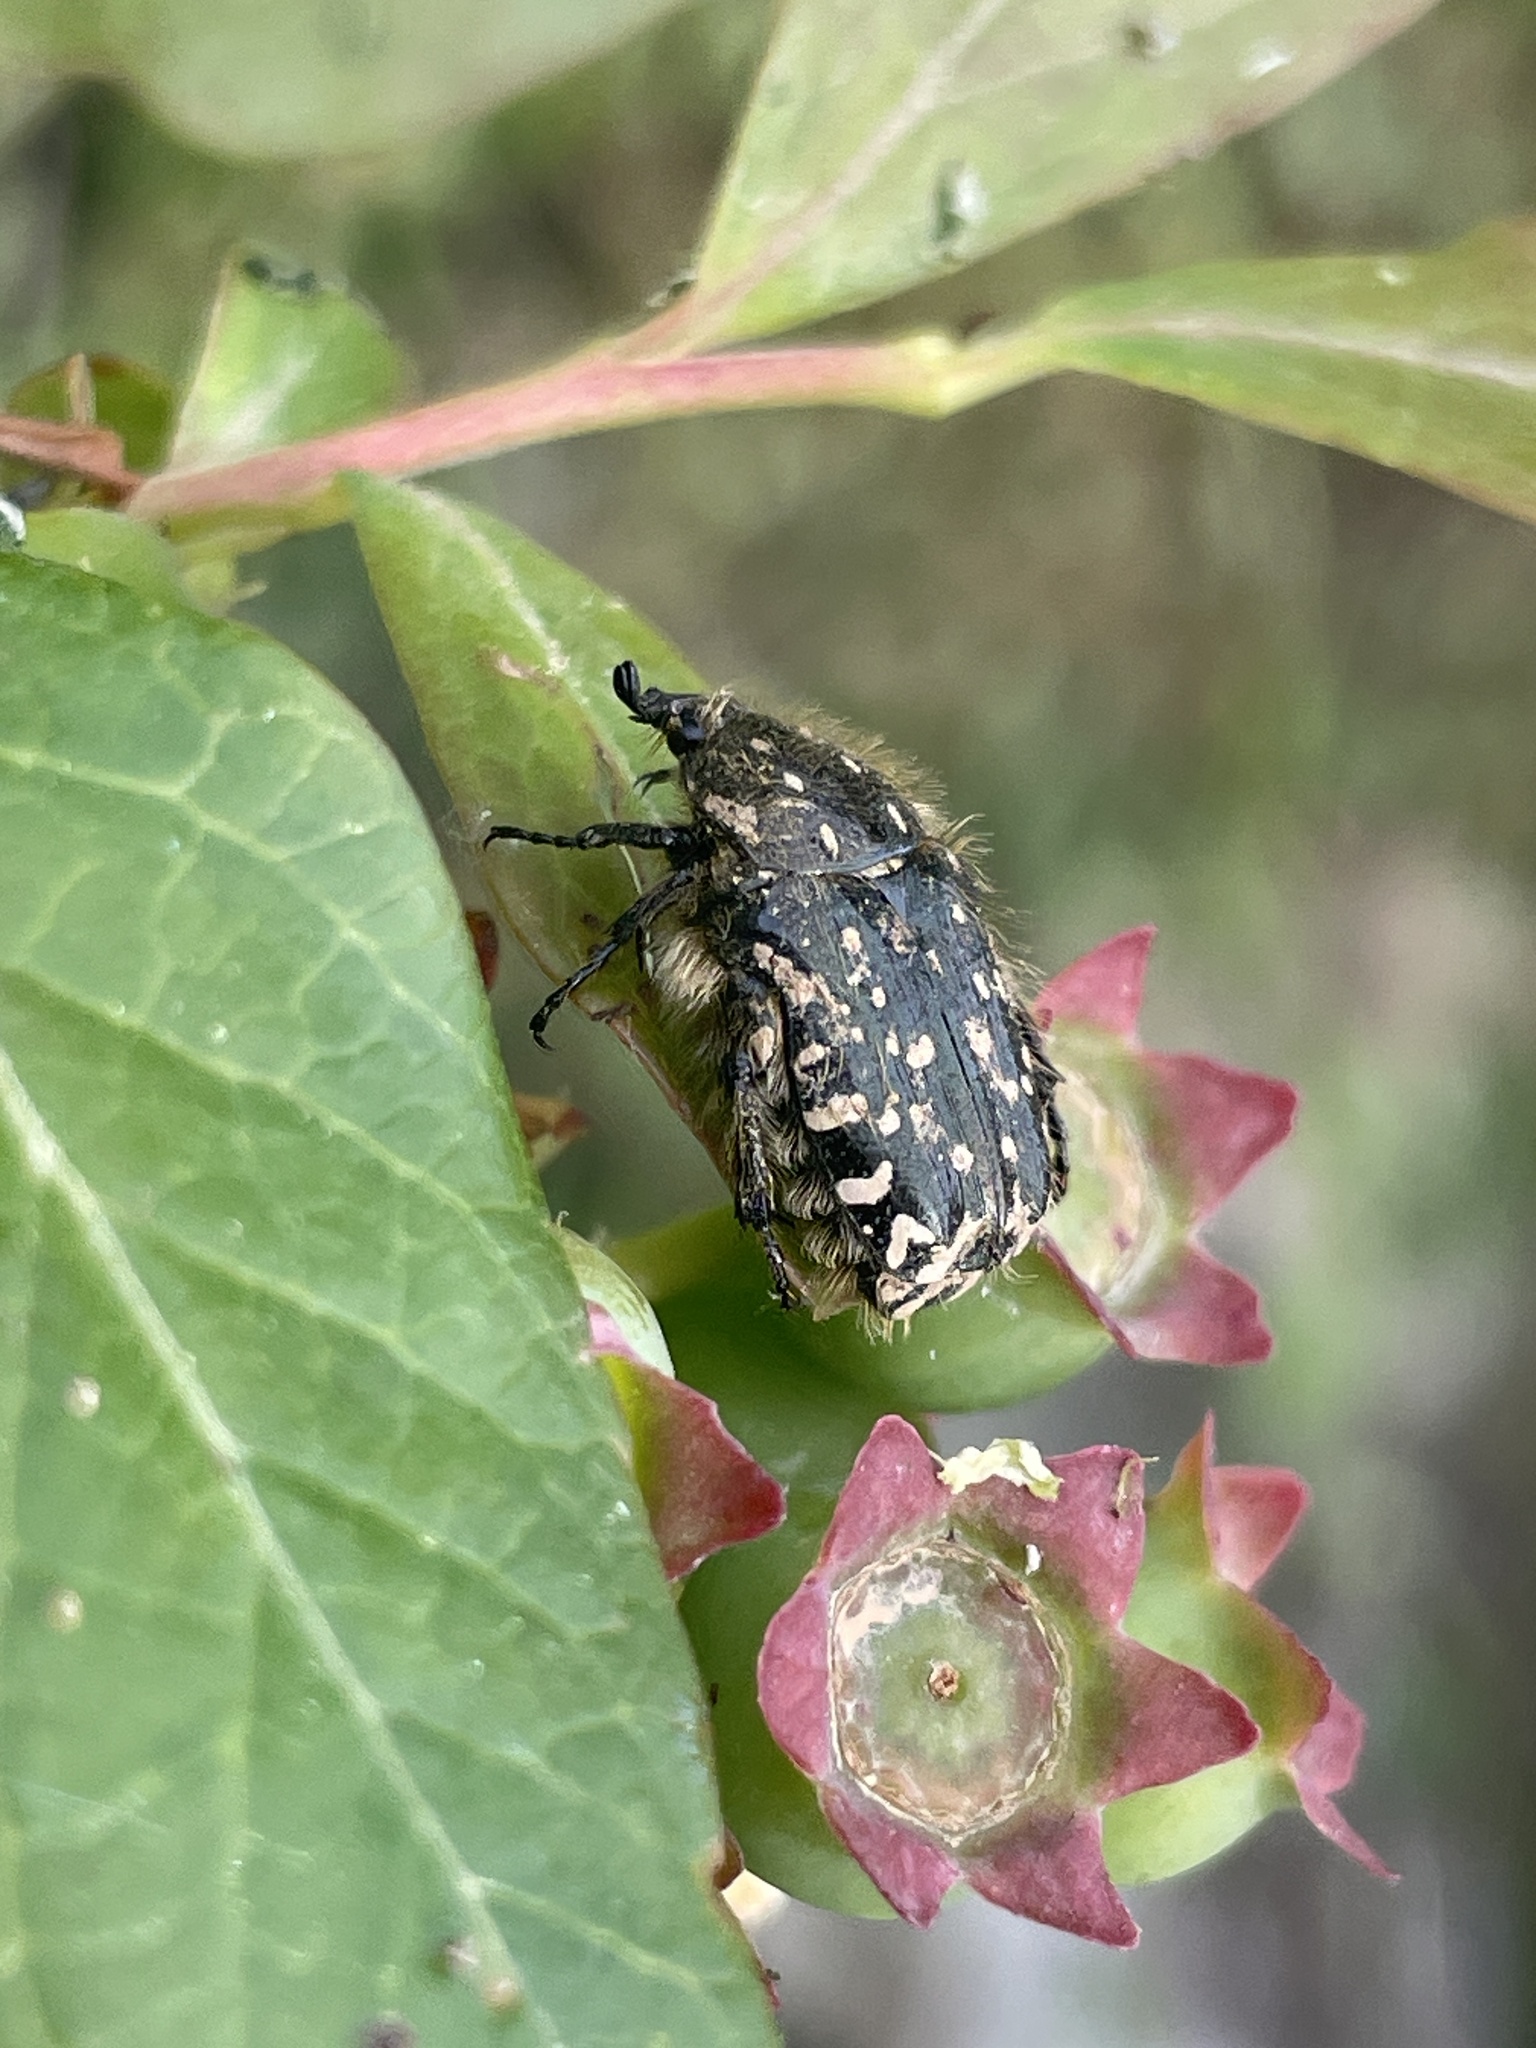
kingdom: Animalia
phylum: Arthropoda
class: Insecta
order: Coleoptera
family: Scarabaeidae
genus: Oxythyrea
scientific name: Oxythyrea funesta
